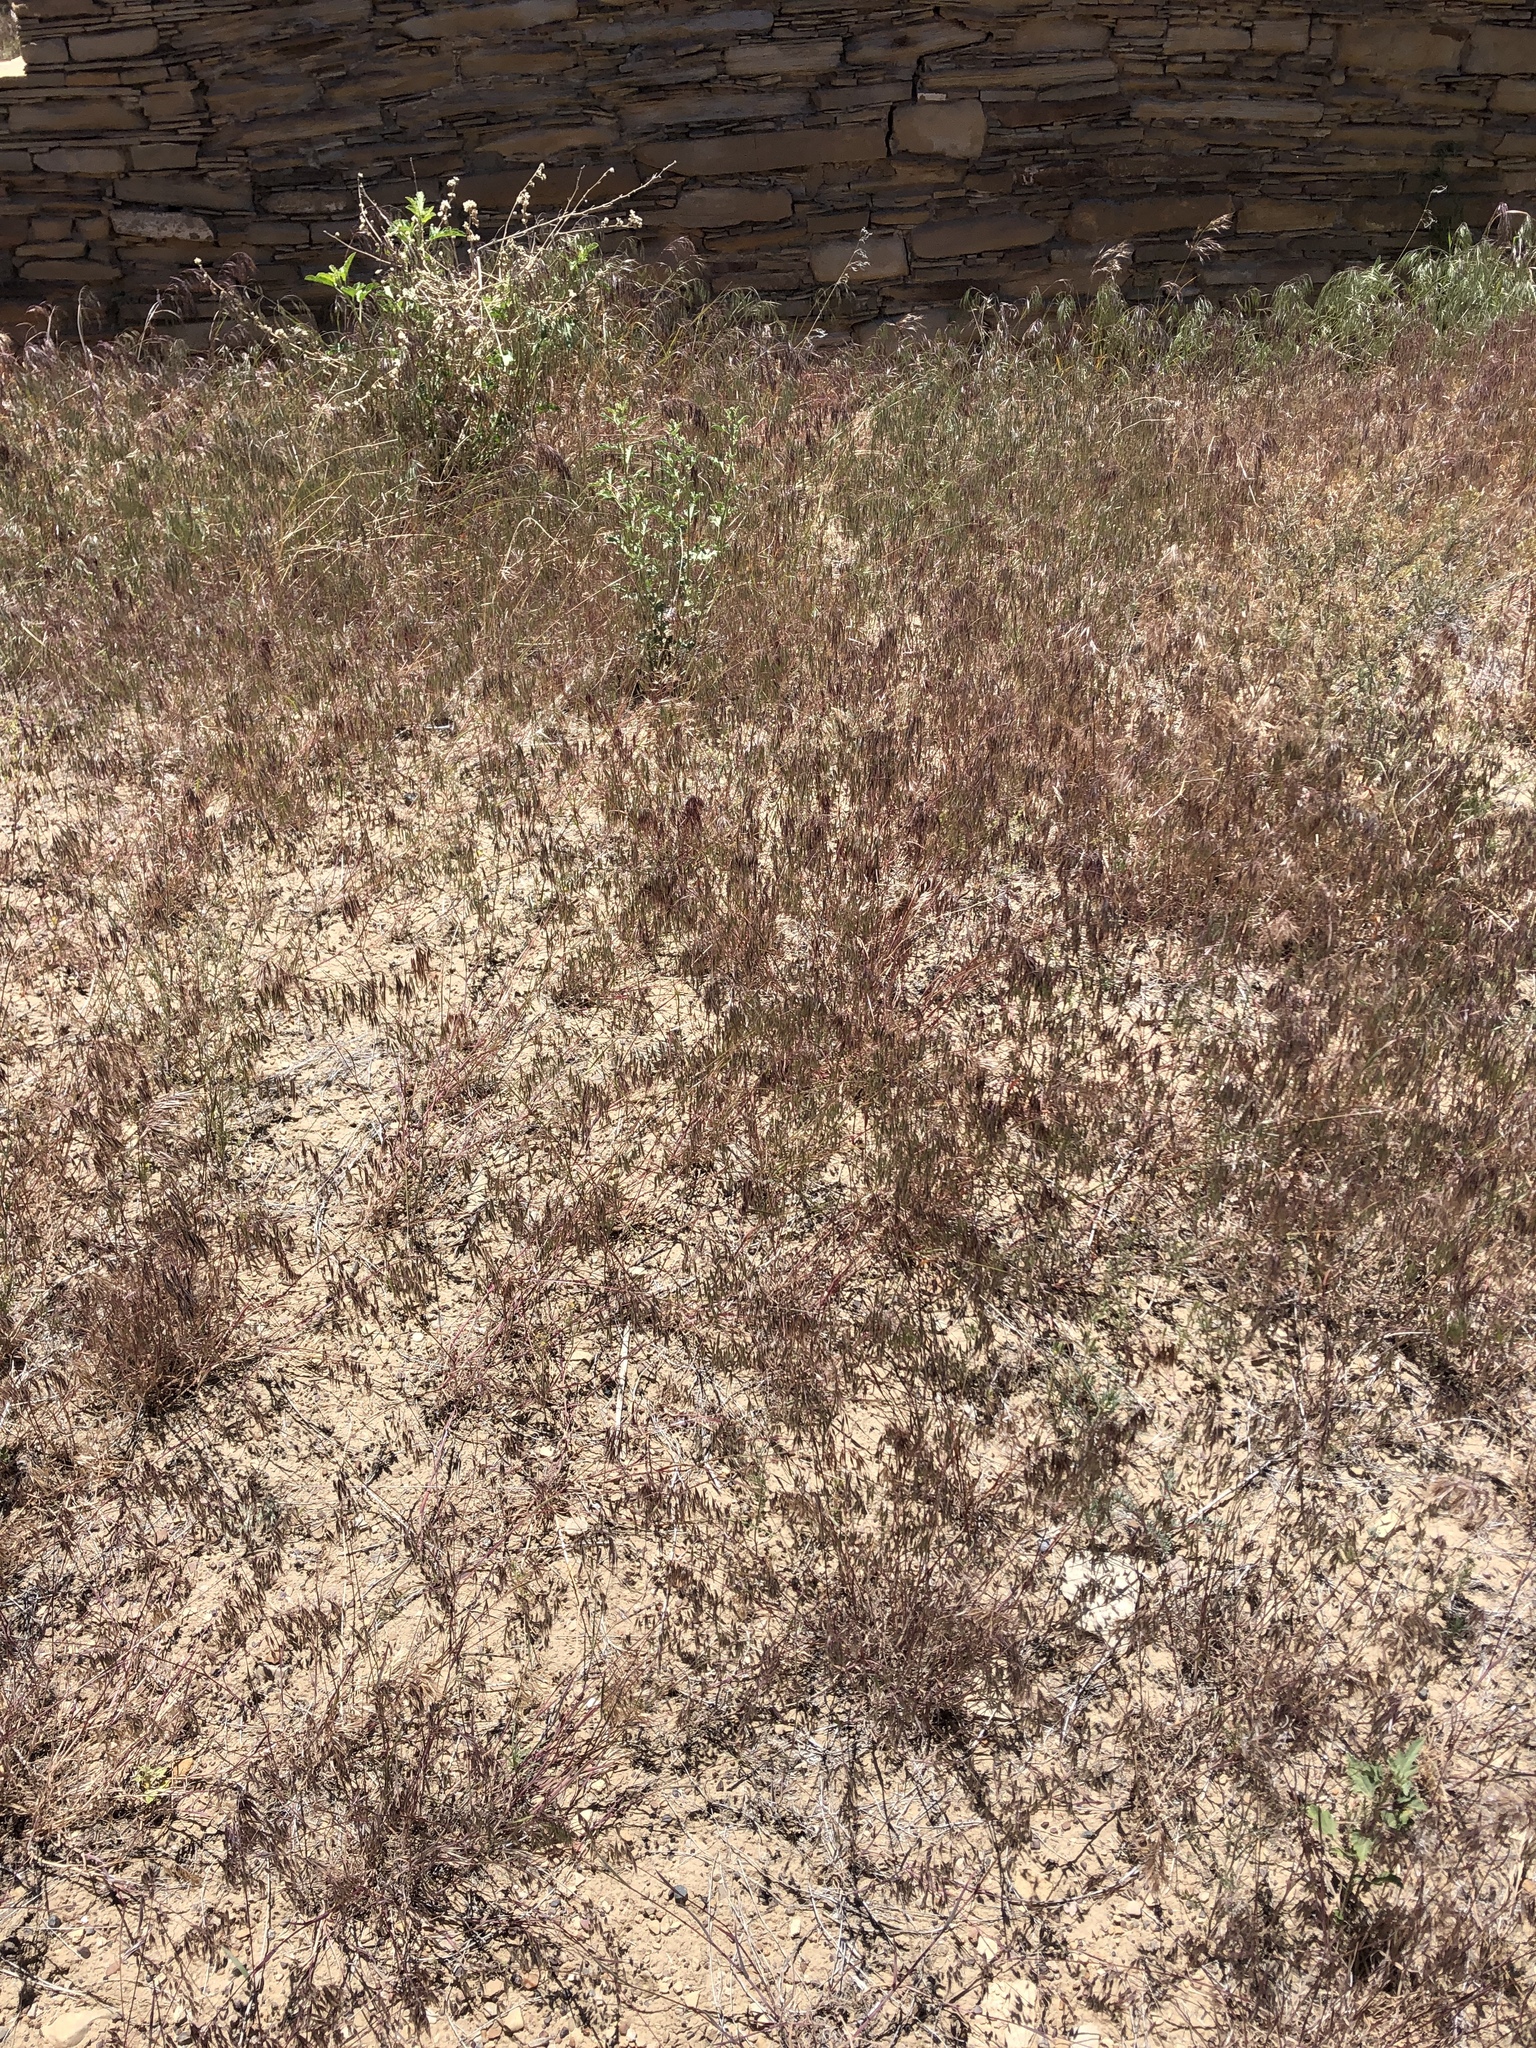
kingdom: Plantae
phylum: Tracheophyta
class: Liliopsida
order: Poales
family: Poaceae
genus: Bromus
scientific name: Bromus tectorum
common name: Cheatgrass
